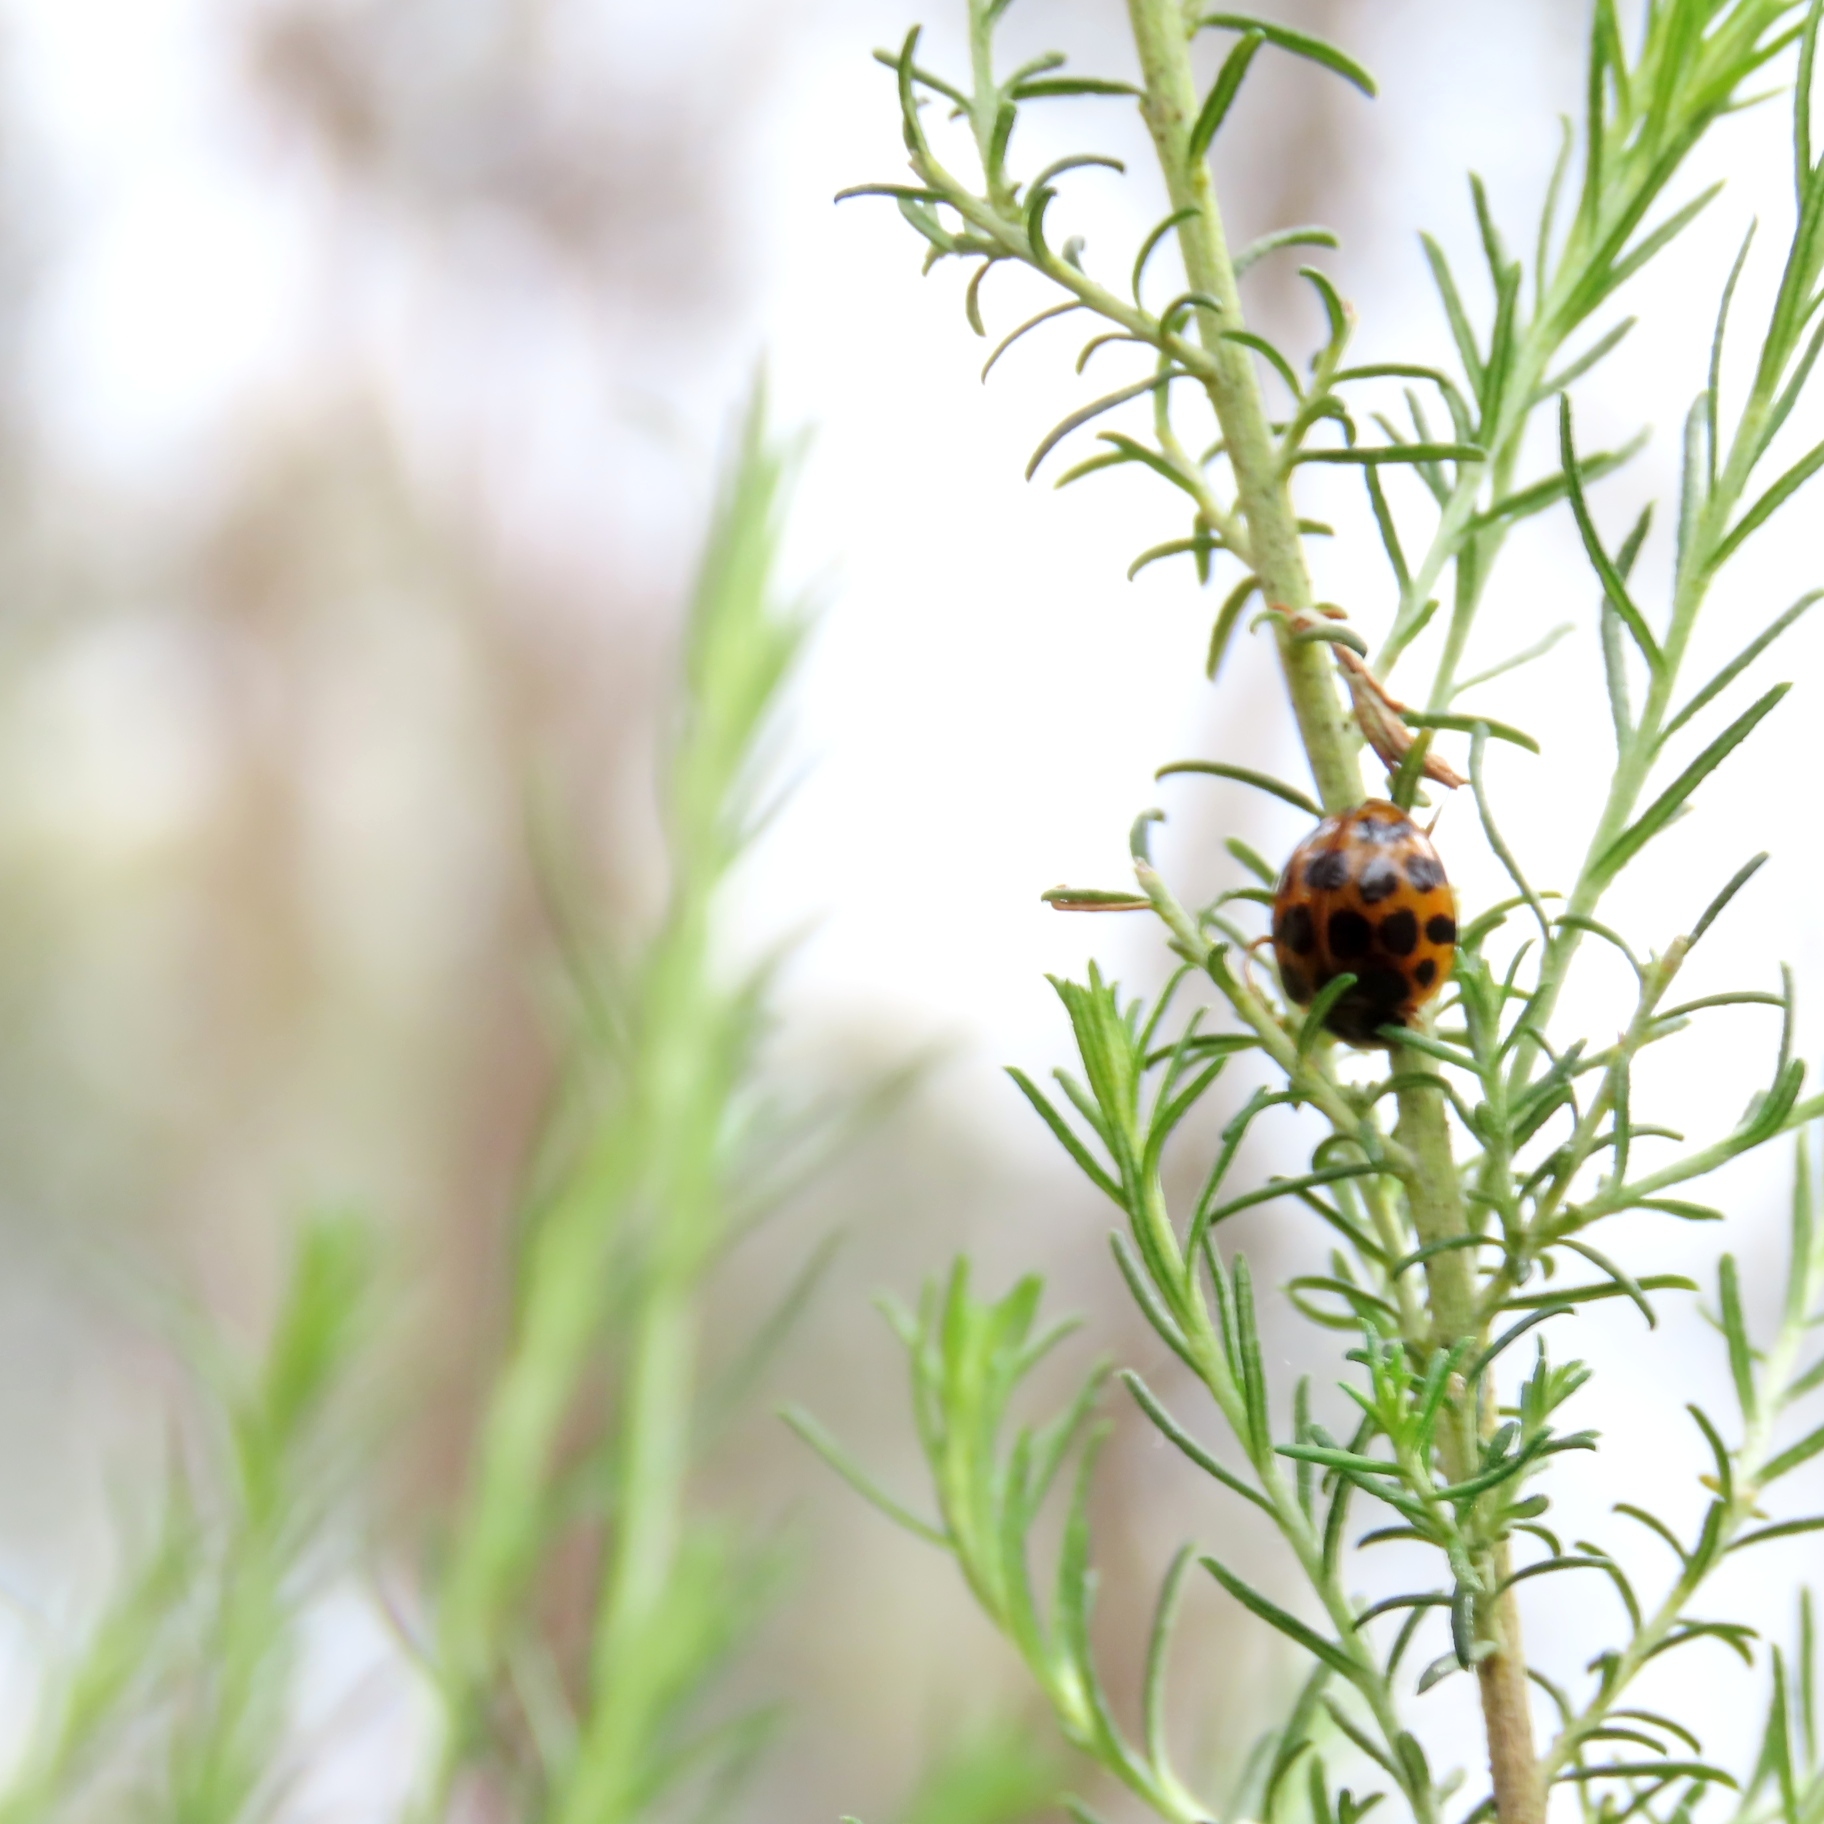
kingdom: Animalia
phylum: Arthropoda
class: Insecta
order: Coleoptera
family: Coccinellidae
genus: Harmonia
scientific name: Harmonia conformis
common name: Common spotted ladybird beetle
